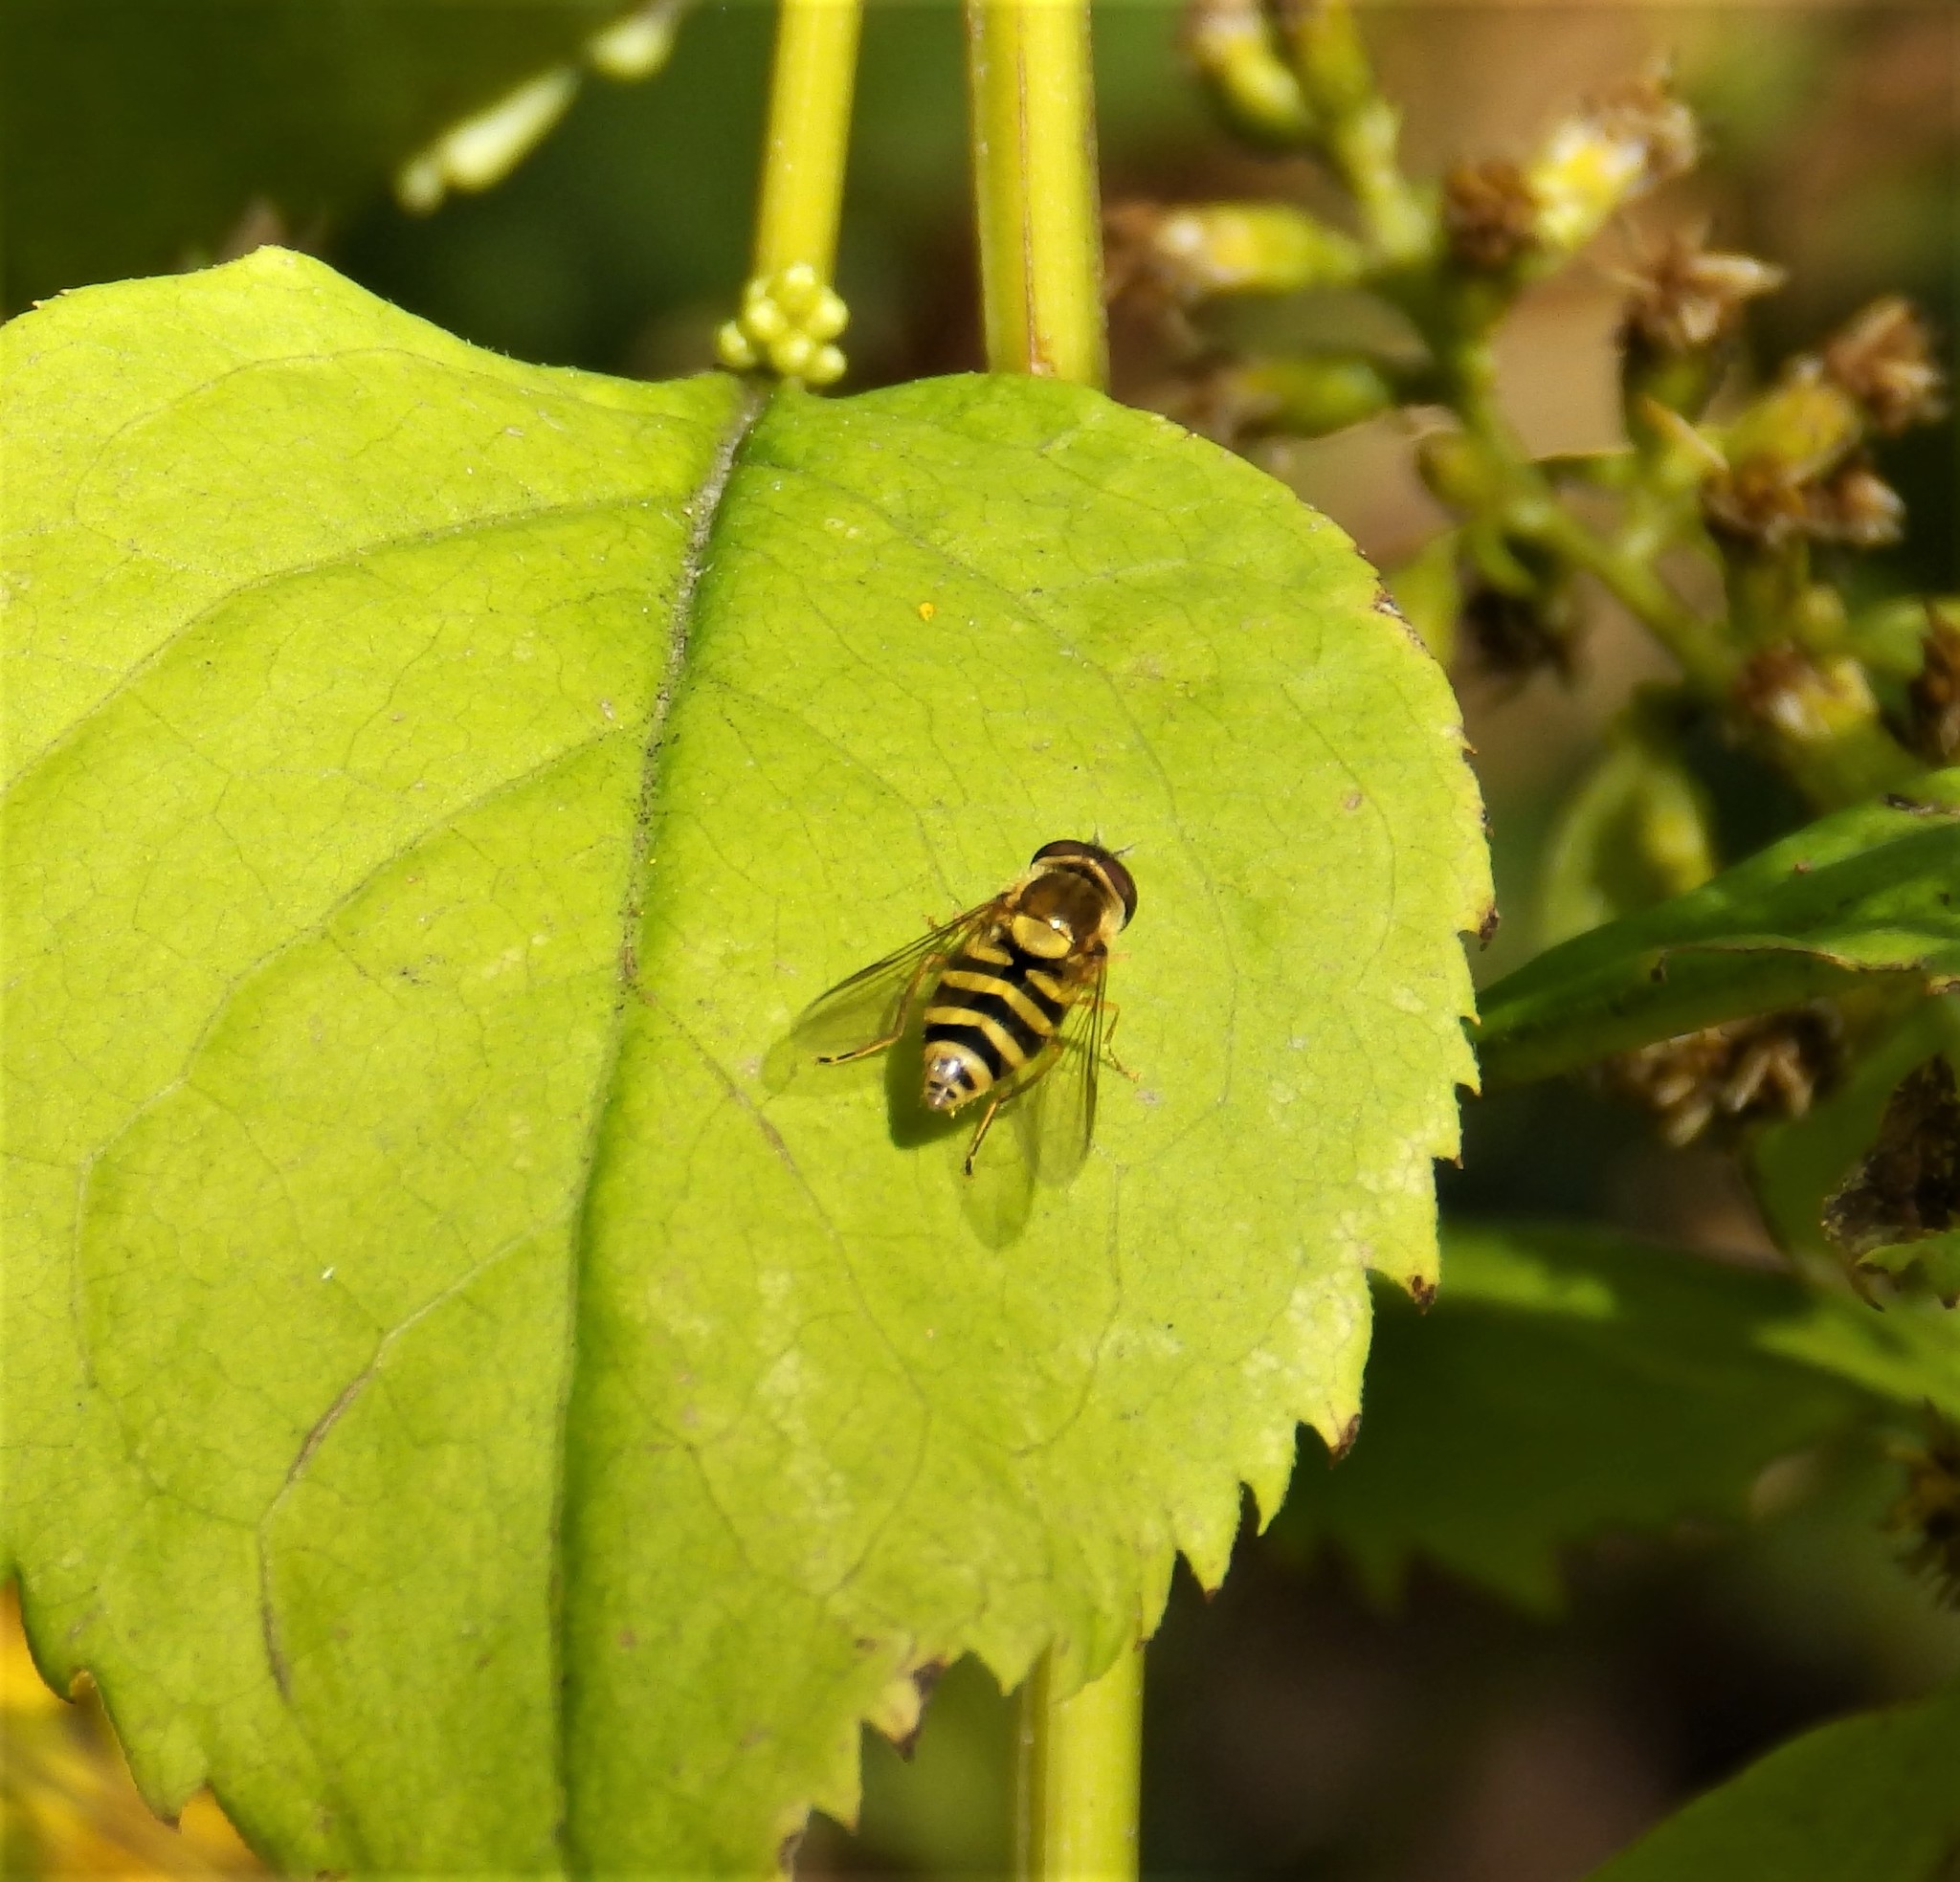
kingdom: Animalia
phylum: Arthropoda
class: Insecta
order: Diptera
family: Syrphidae
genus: Syrphus
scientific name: Syrphus
